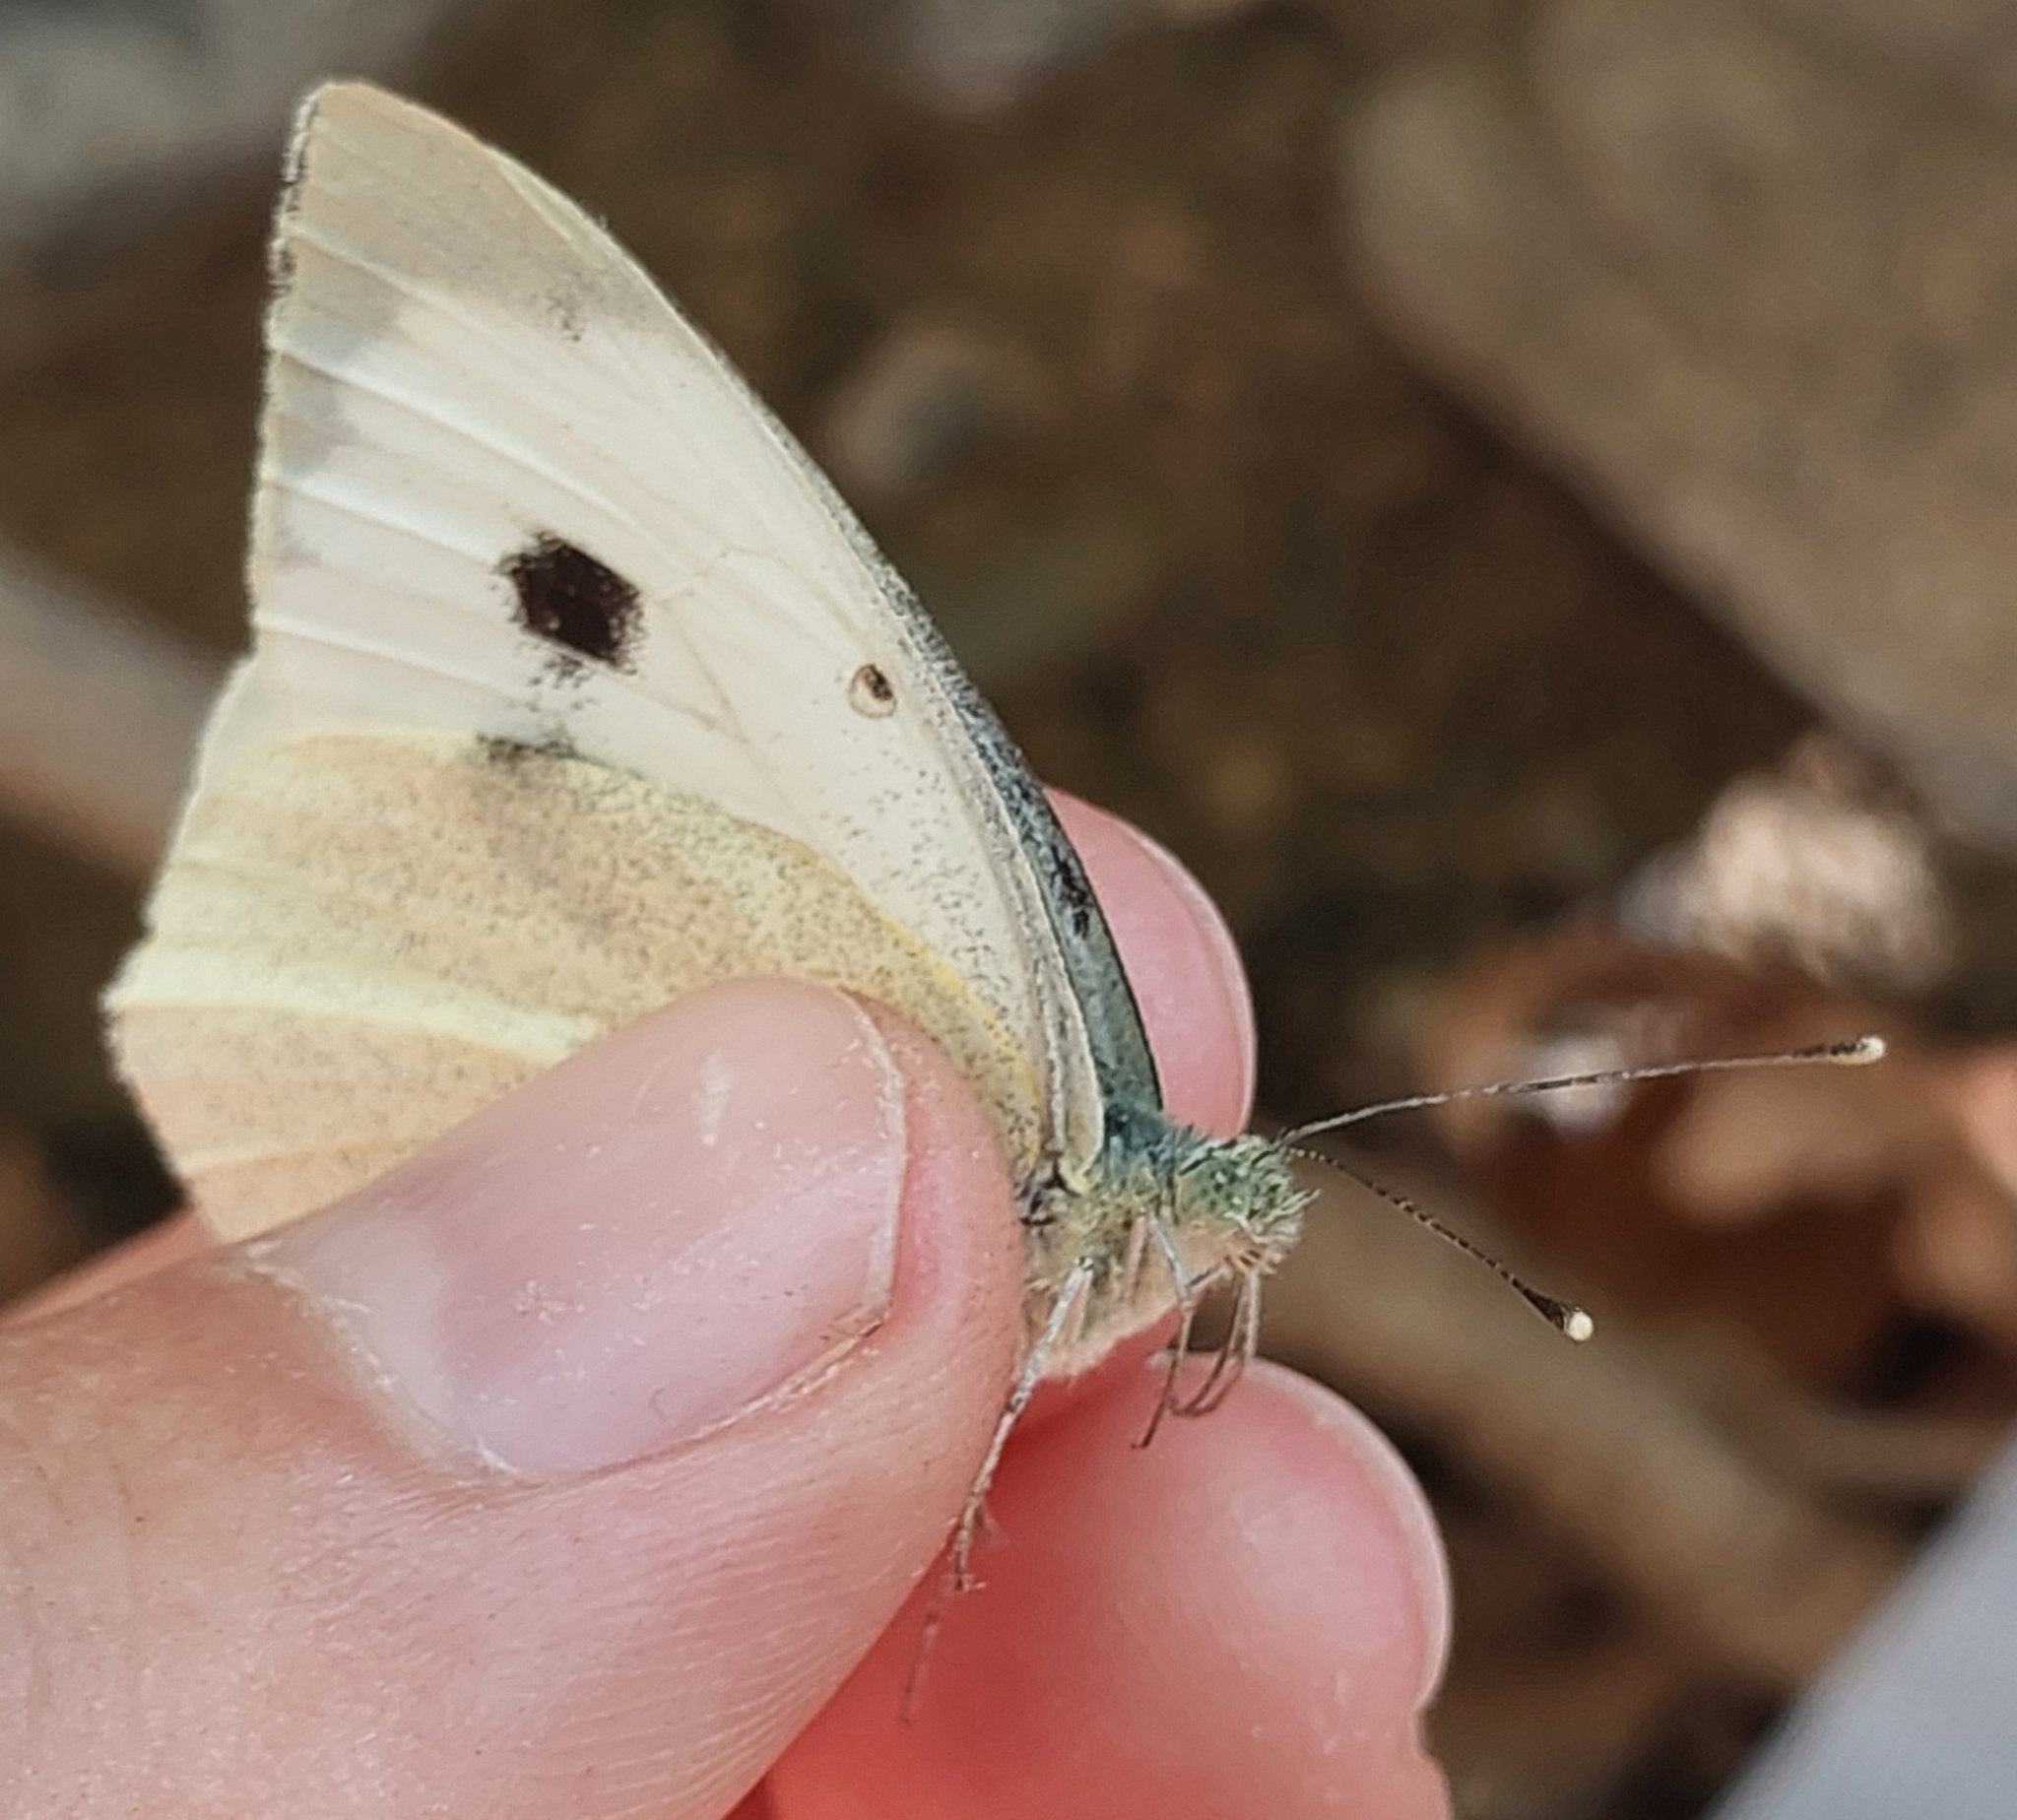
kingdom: Animalia
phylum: Arthropoda
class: Insecta
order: Lepidoptera
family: Pieridae
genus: Pieris
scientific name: Pieris brassicae
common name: Large white
